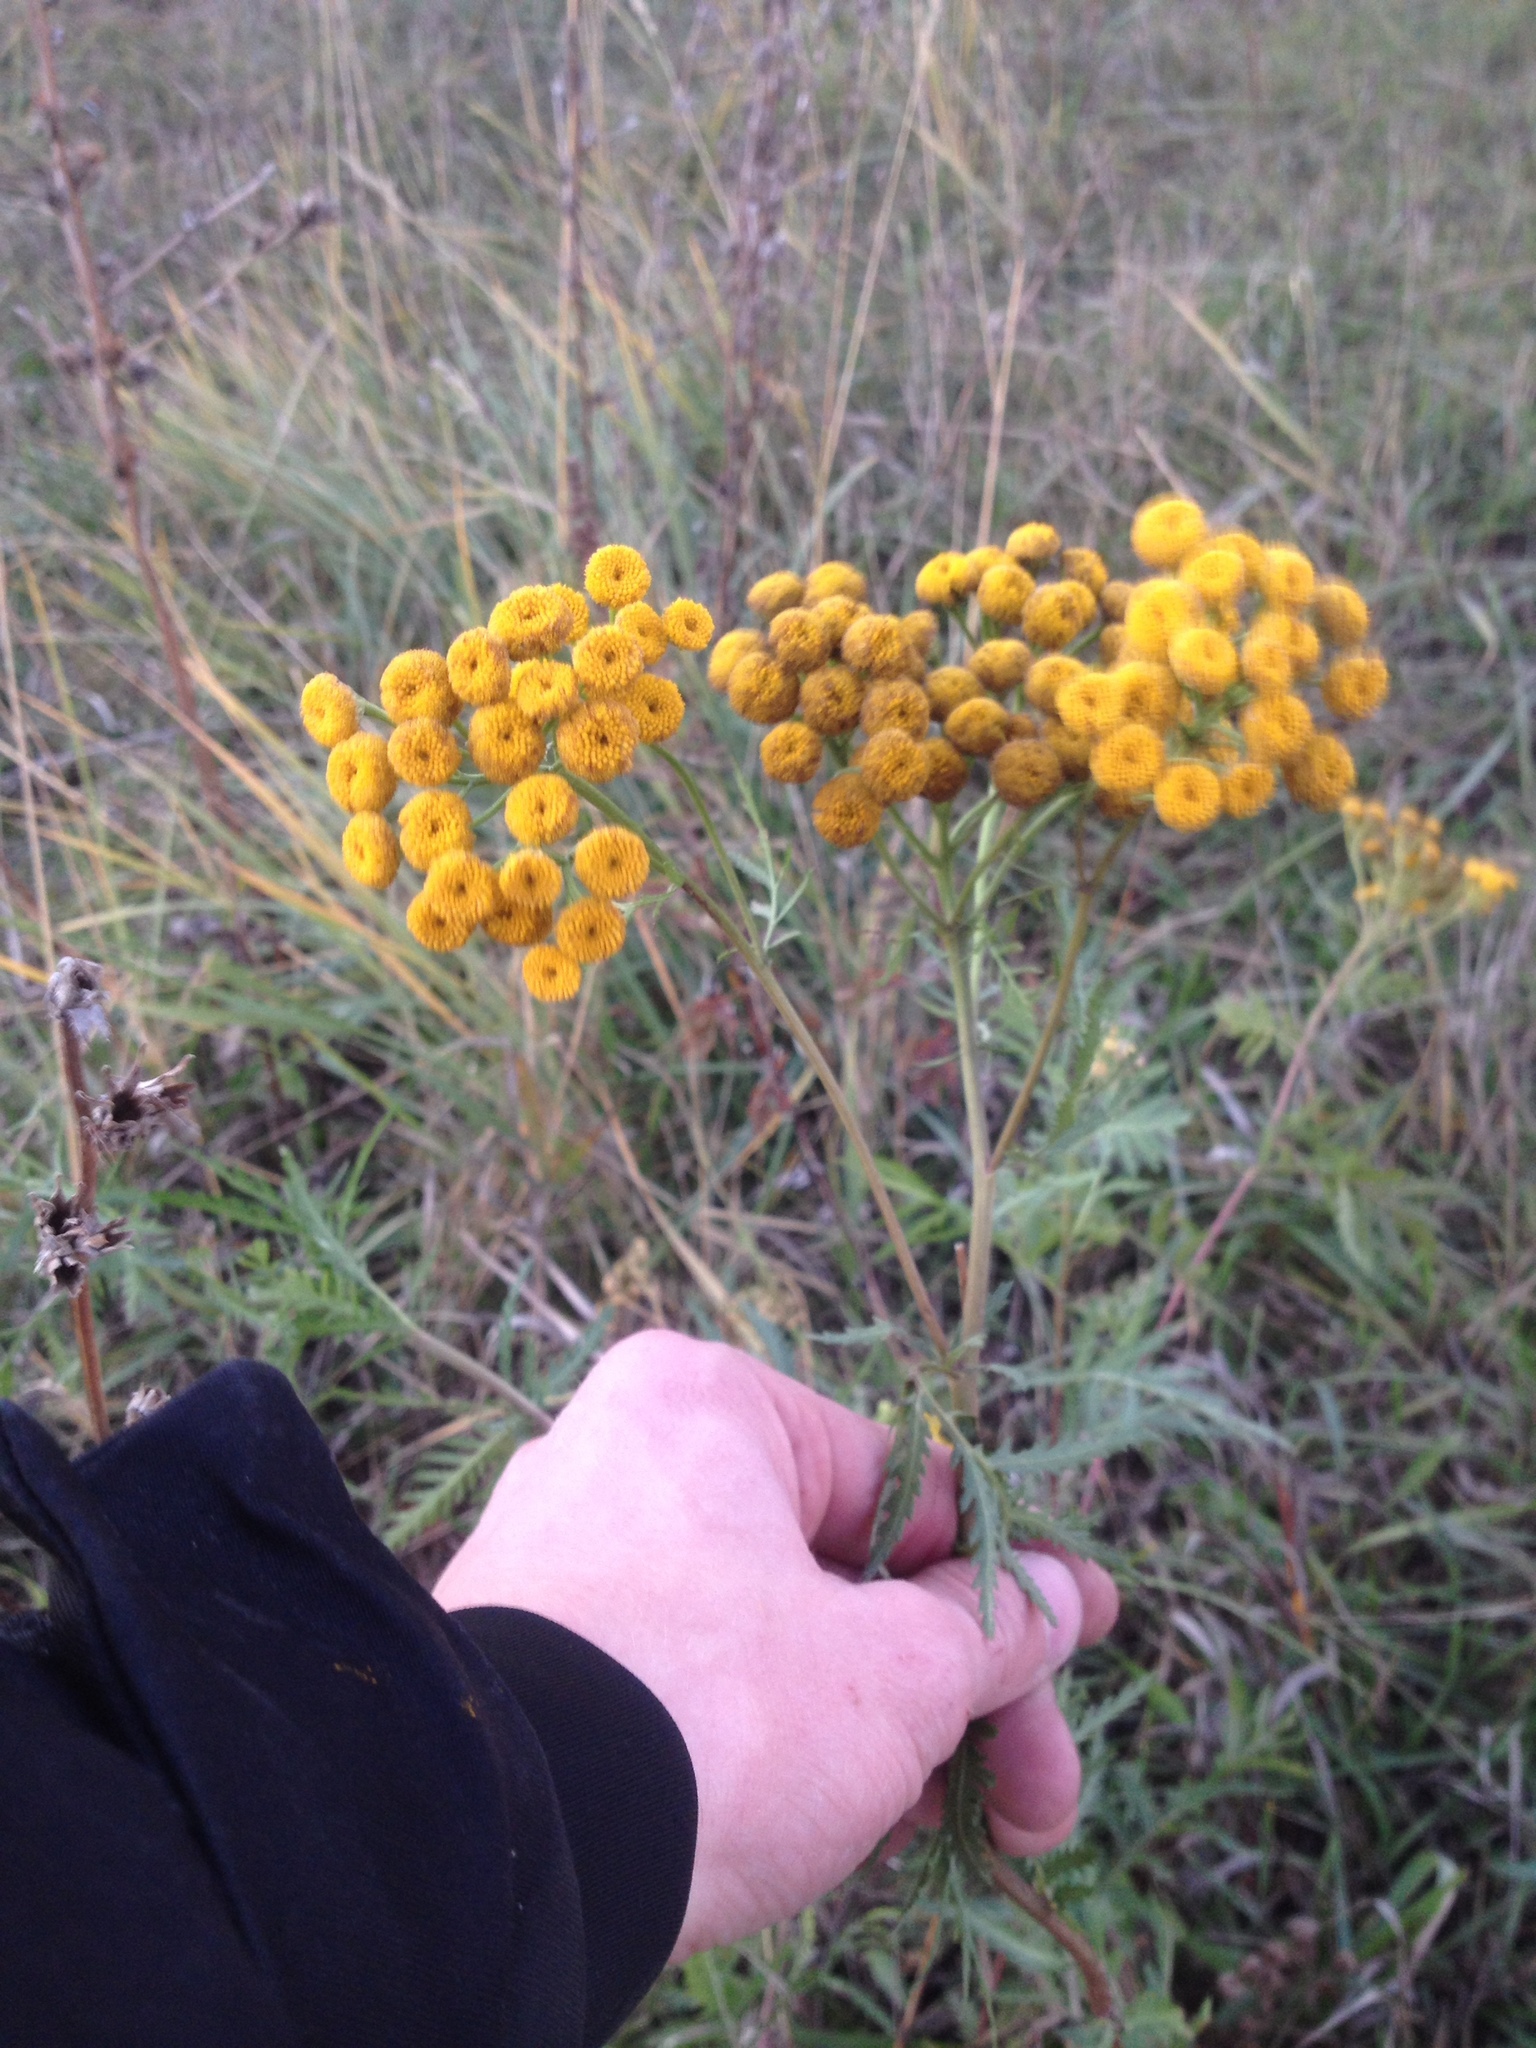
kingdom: Plantae
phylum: Tracheophyta
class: Magnoliopsida
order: Asterales
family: Asteraceae
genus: Tanacetum
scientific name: Tanacetum vulgare
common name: Common tansy
